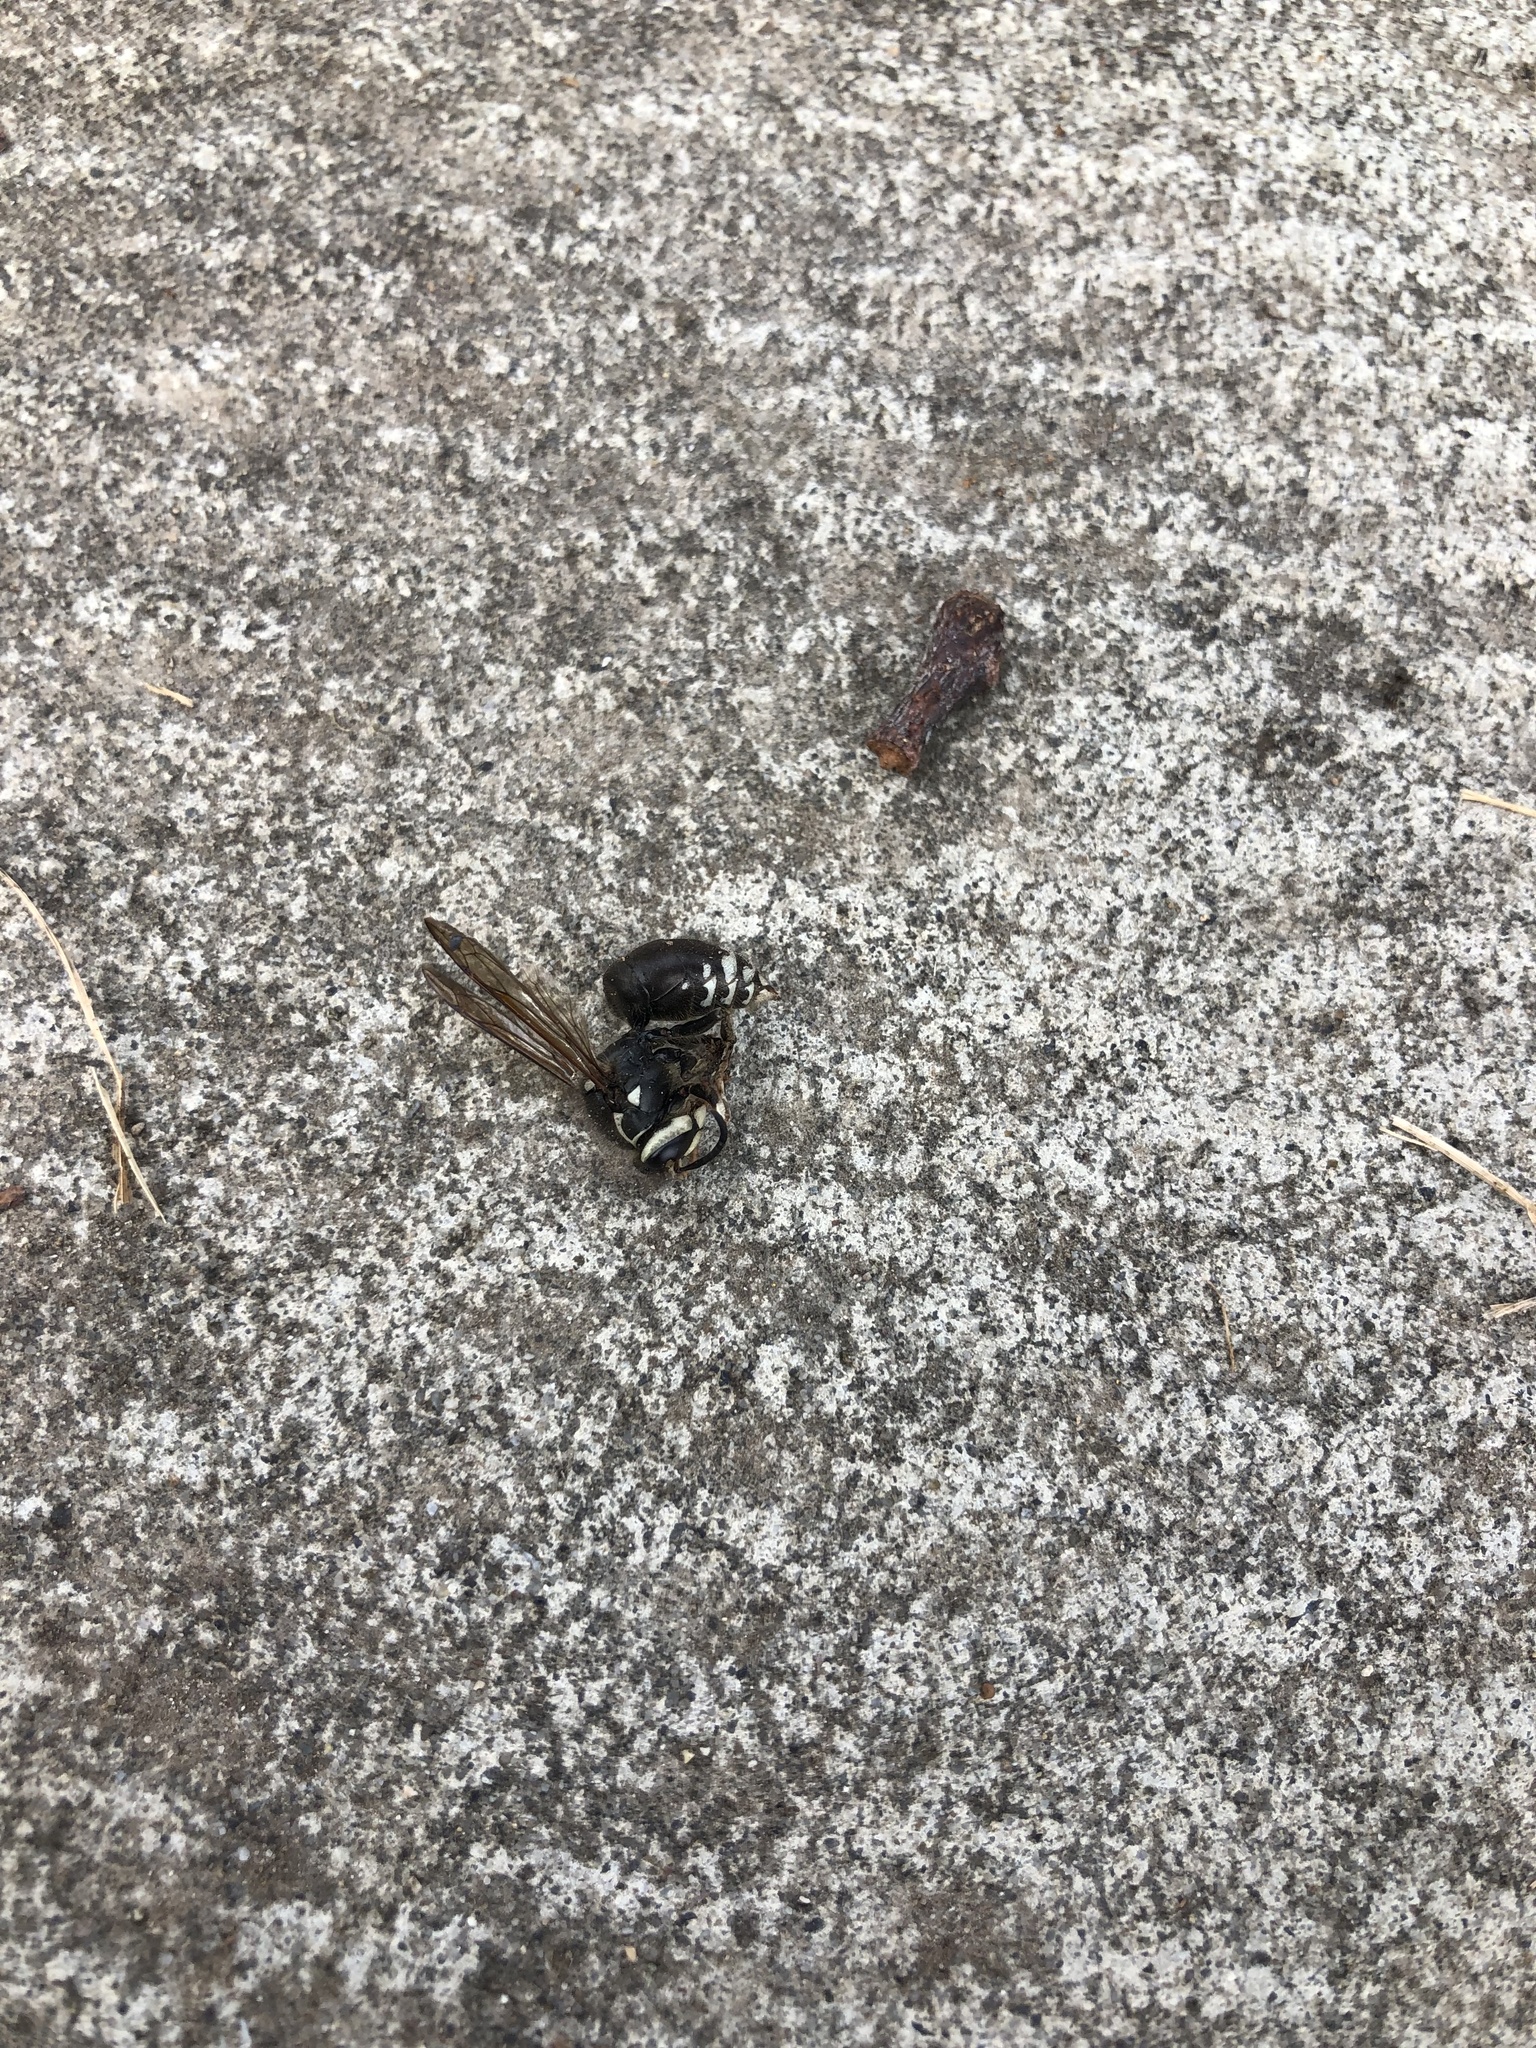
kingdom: Animalia
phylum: Arthropoda
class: Insecta
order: Hymenoptera
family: Vespidae
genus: Dolichovespula
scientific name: Dolichovespula maculata
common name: Bald-faced hornet
